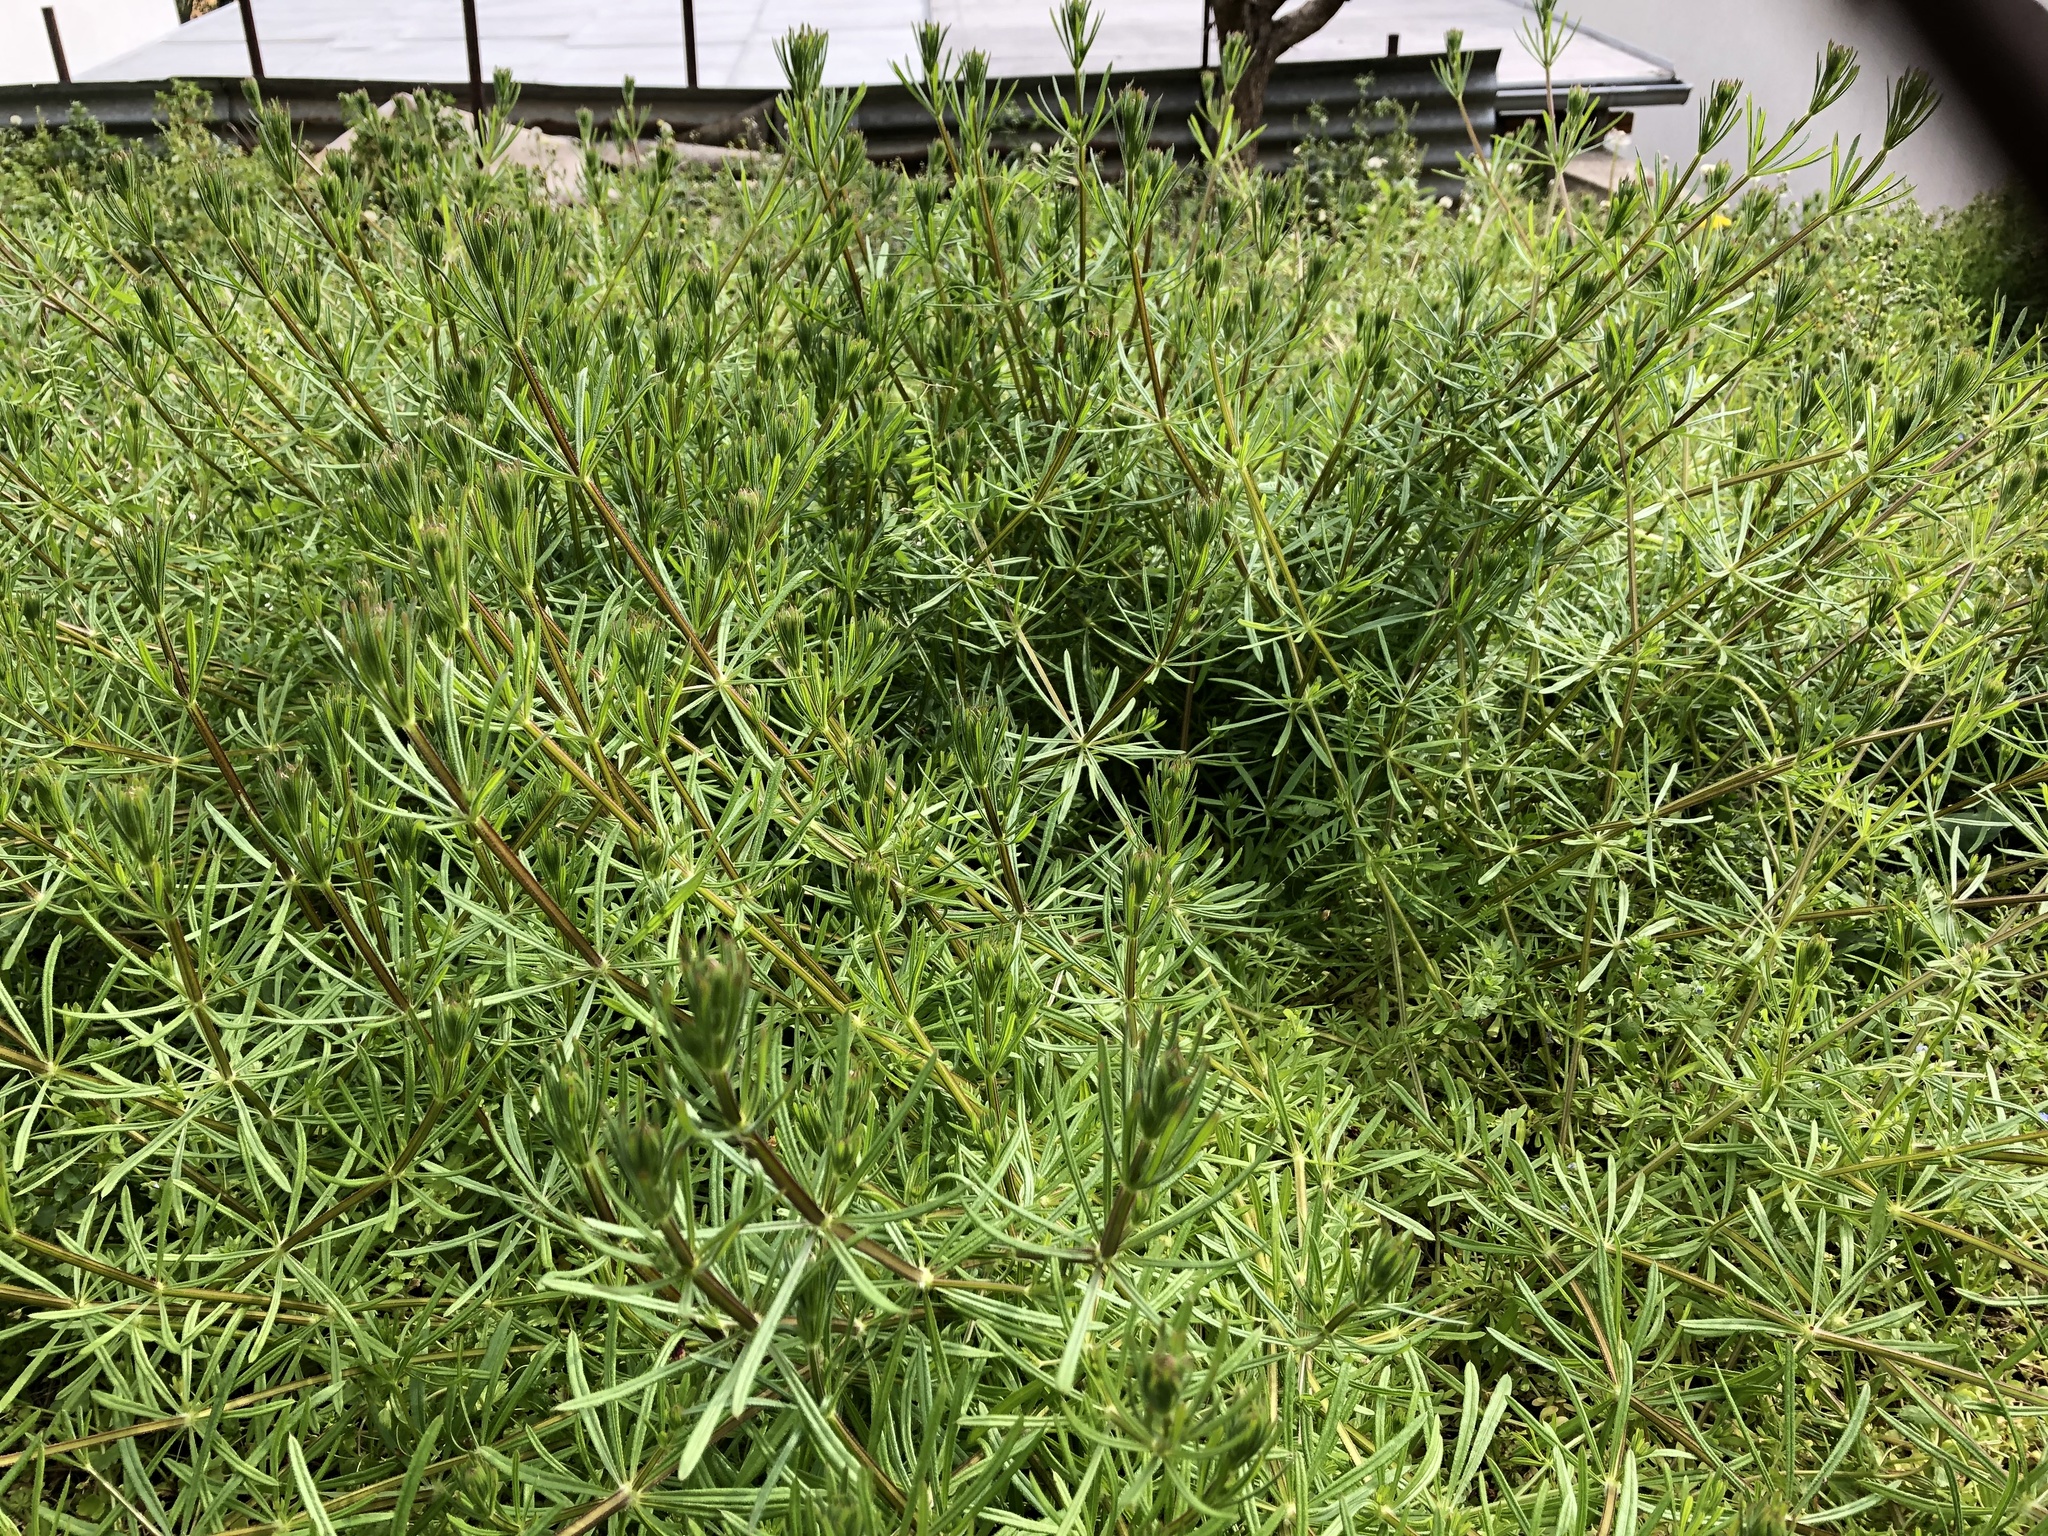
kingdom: Plantae
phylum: Tracheophyta
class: Magnoliopsida
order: Gentianales
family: Rubiaceae
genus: Galium
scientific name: Galium aparine
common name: Cleavers
